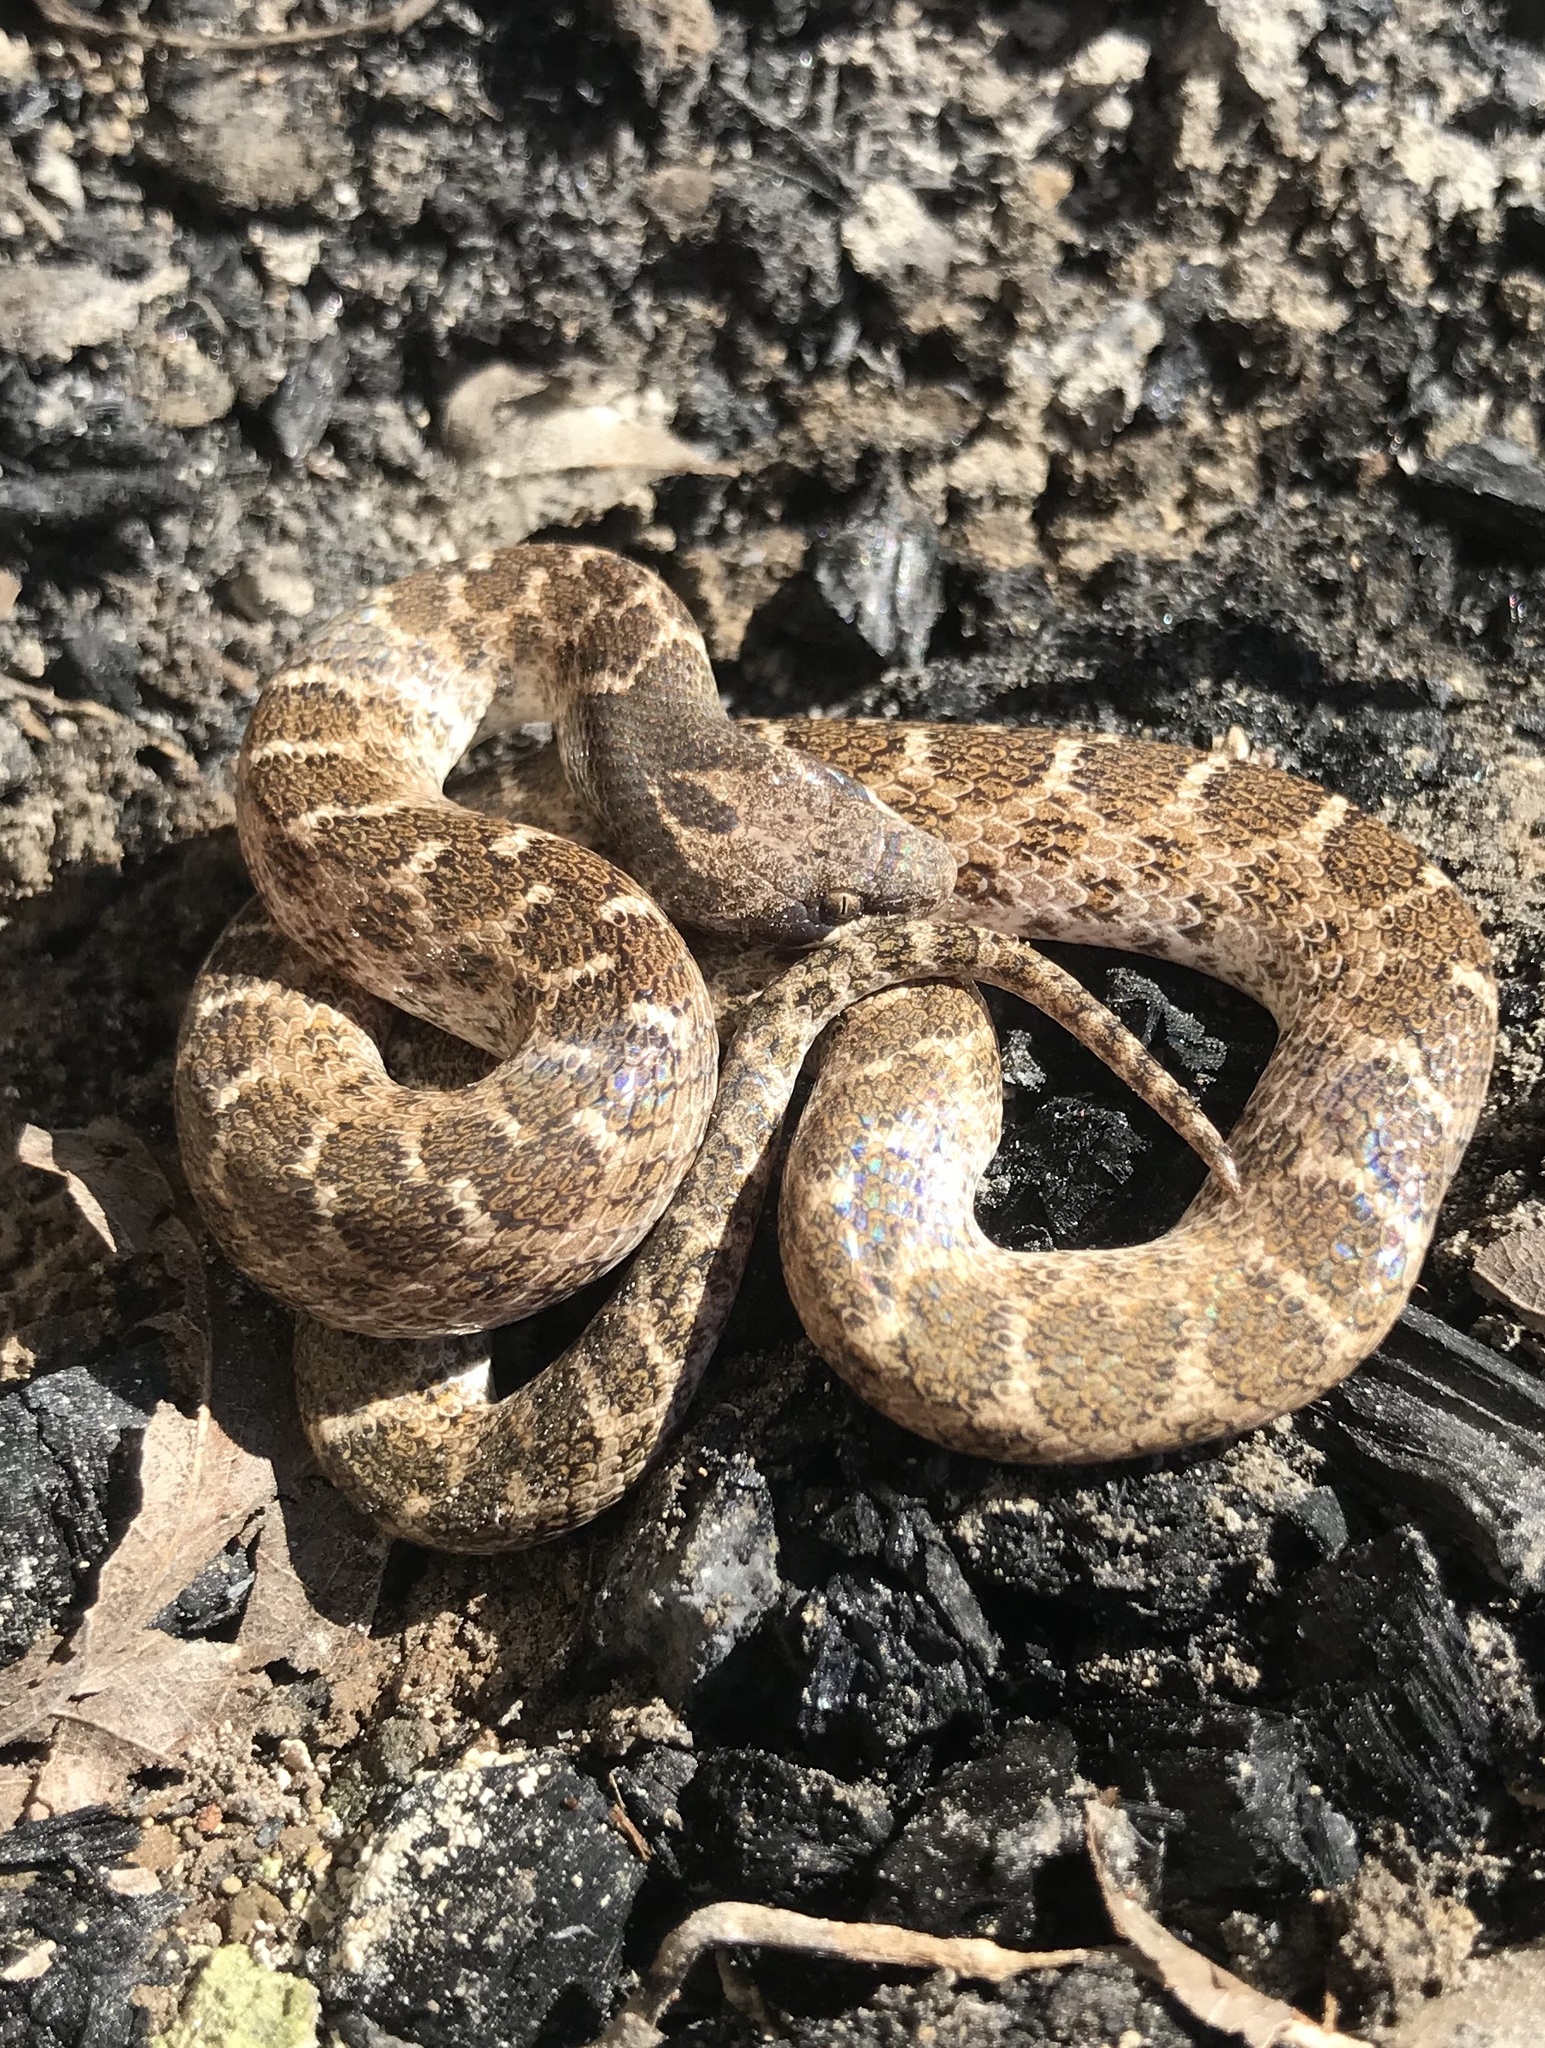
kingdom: Animalia
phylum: Chordata
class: Squamata
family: Colubridae
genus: Hypsiglena
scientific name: Hypsiglena jani
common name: Chihuahuan nightsnake
